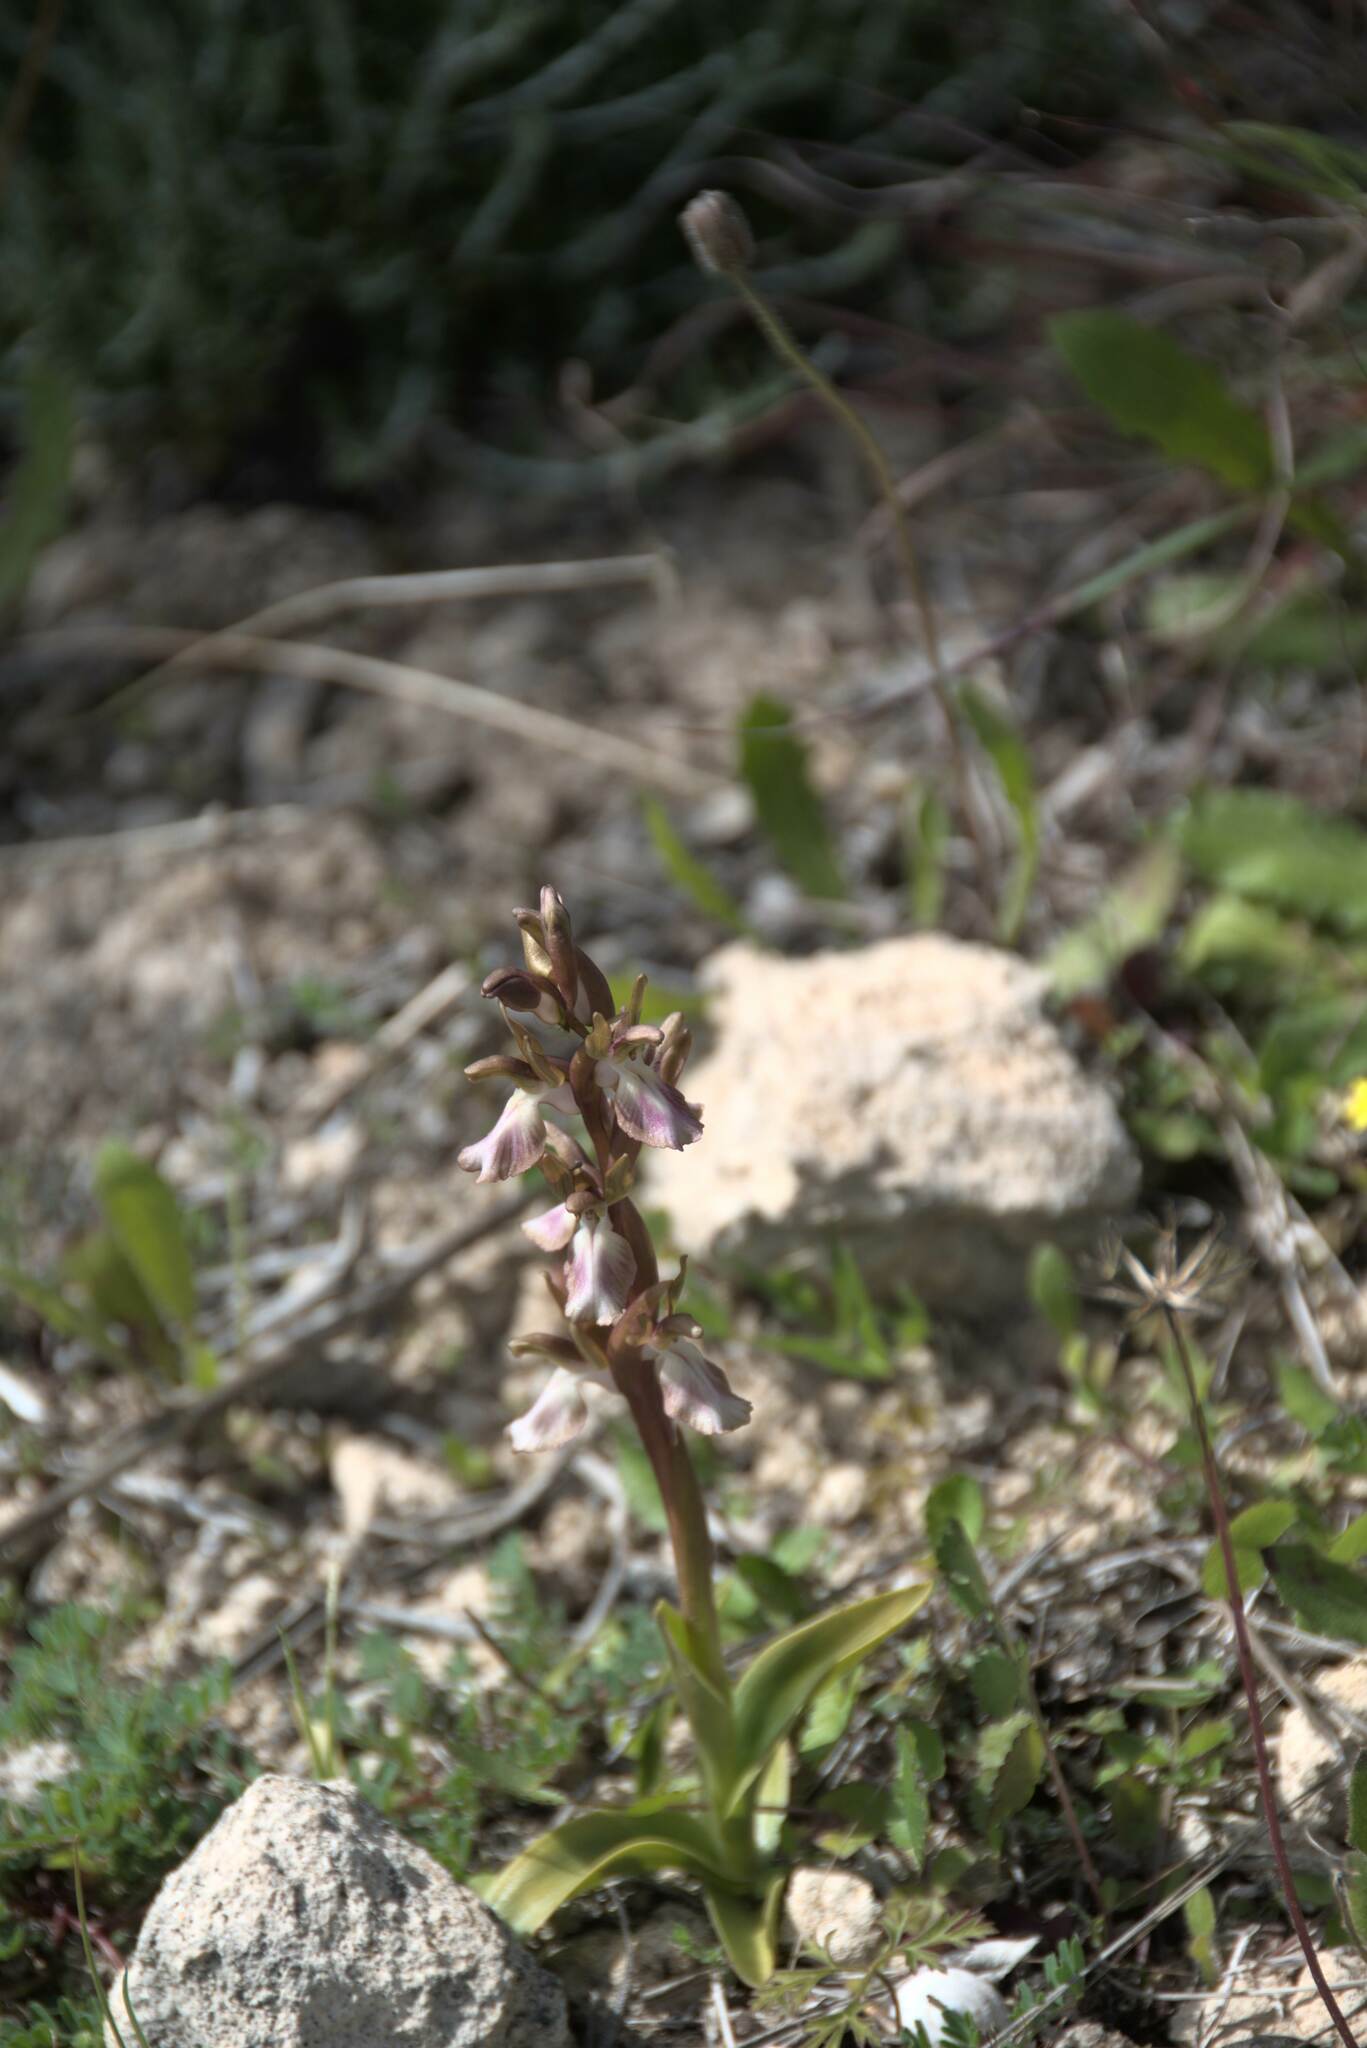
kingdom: Plantae
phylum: Tracheophyta
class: Liliopsida
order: Asparagales
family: Orchidaceae
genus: Anacamptis
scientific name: Anacamptis collina
